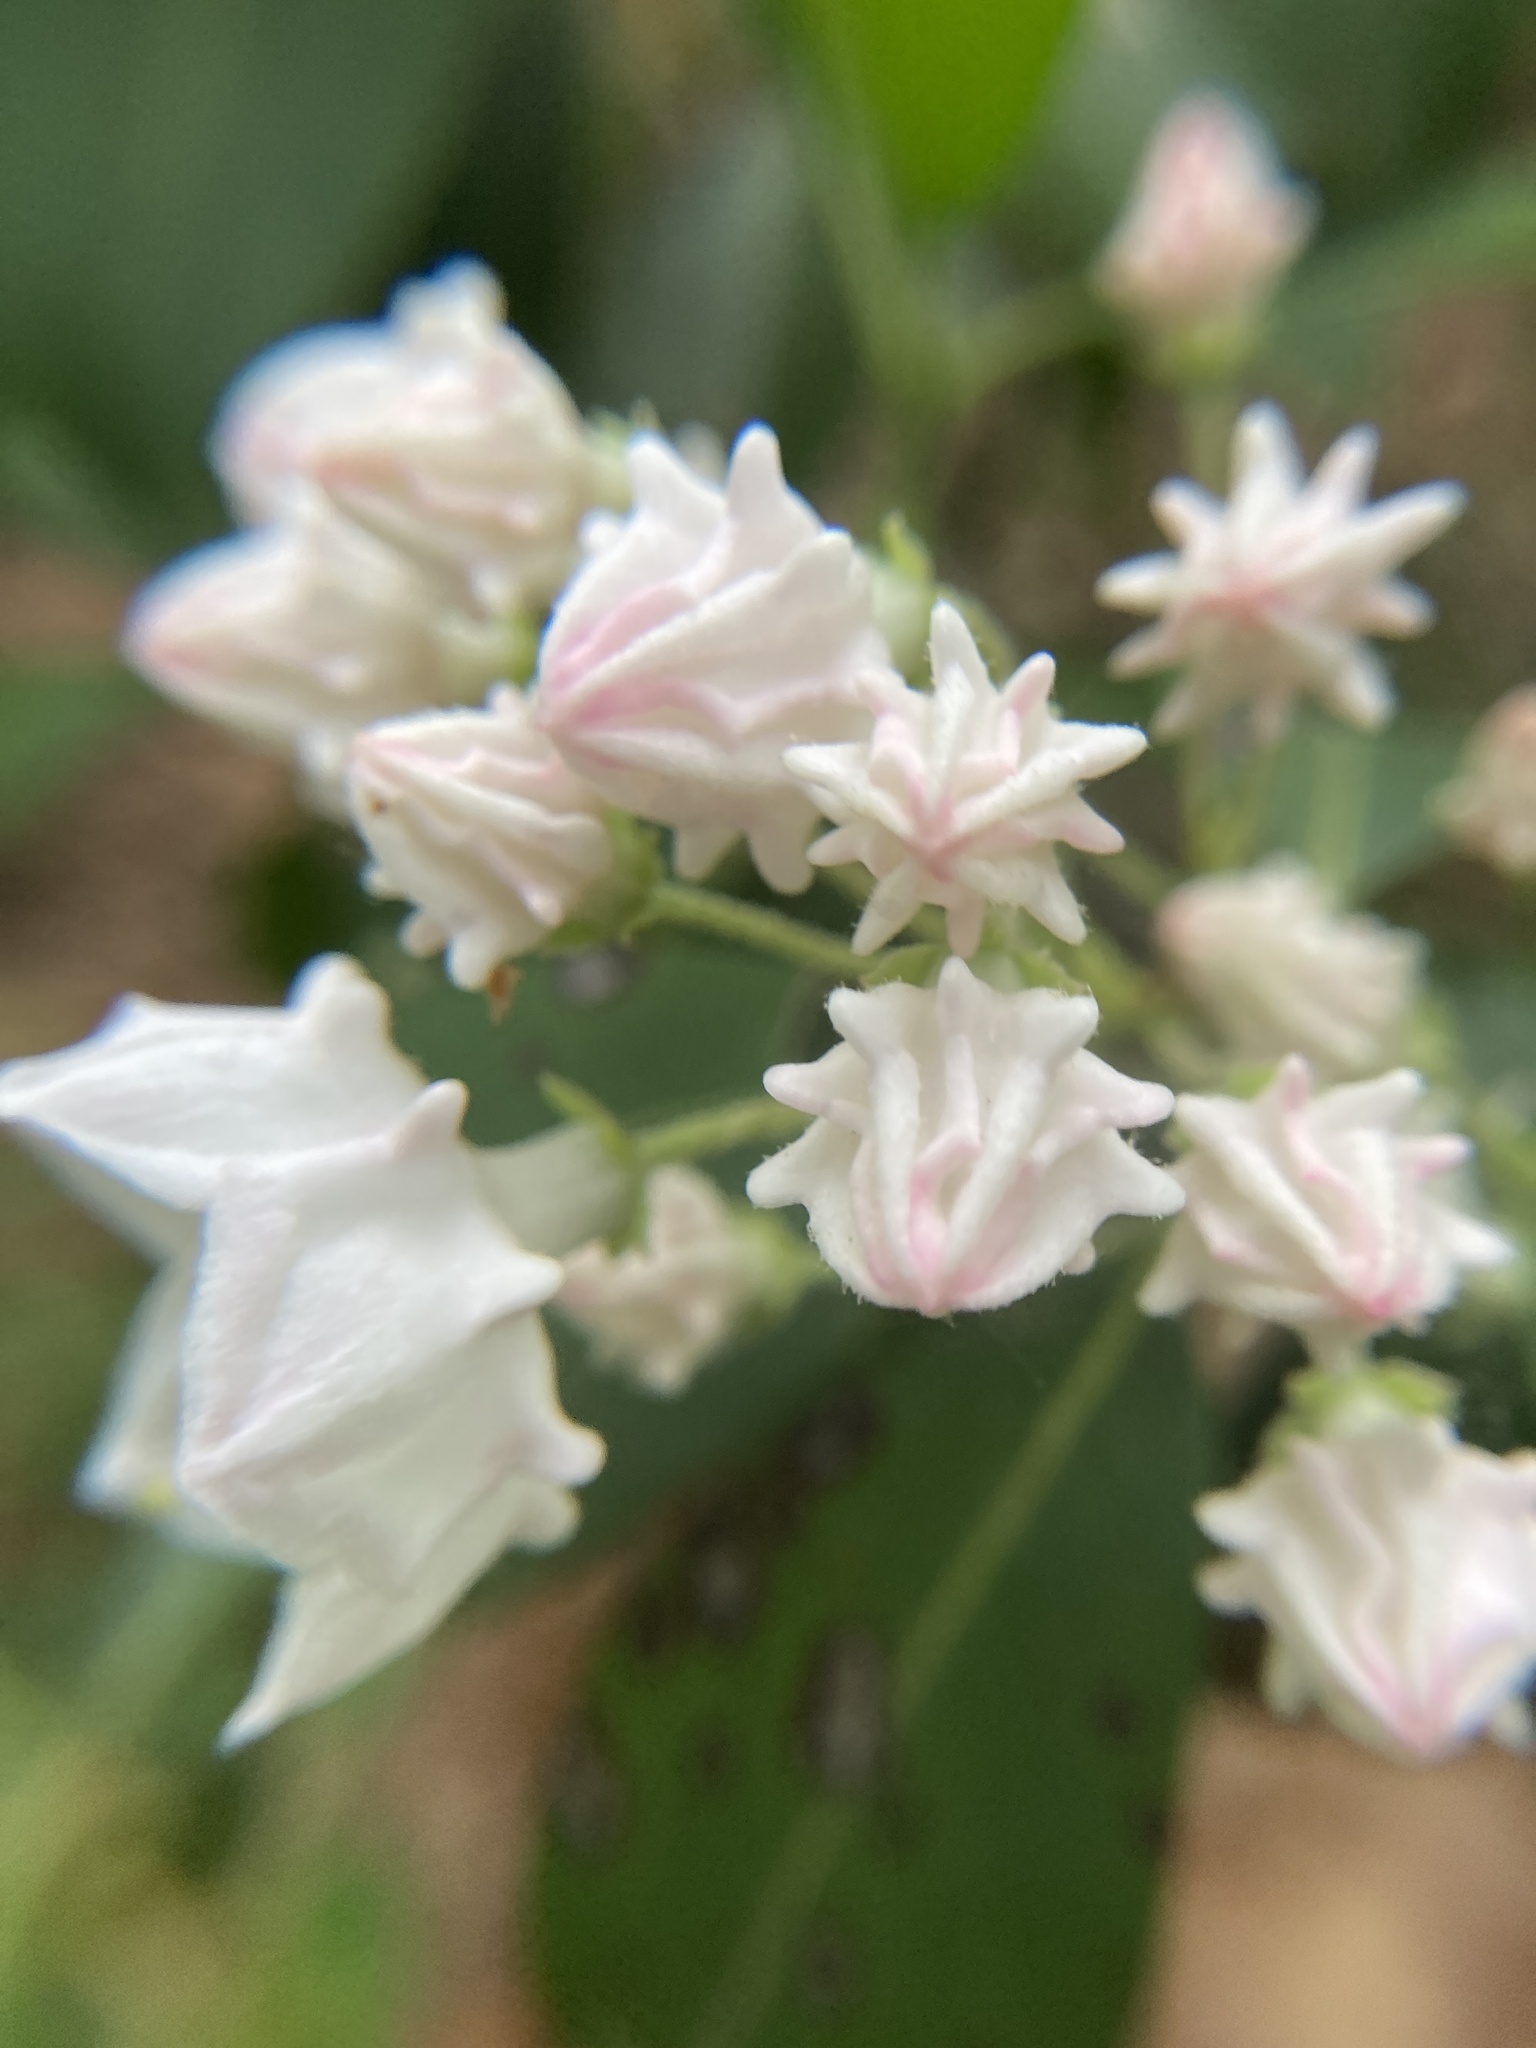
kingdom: Plantae
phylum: Tracheophyta
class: Magnoliopsida
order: Ericales
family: Ericaceae
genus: Kalmia
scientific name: Kalmia latifolia
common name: Mountain-laurel
